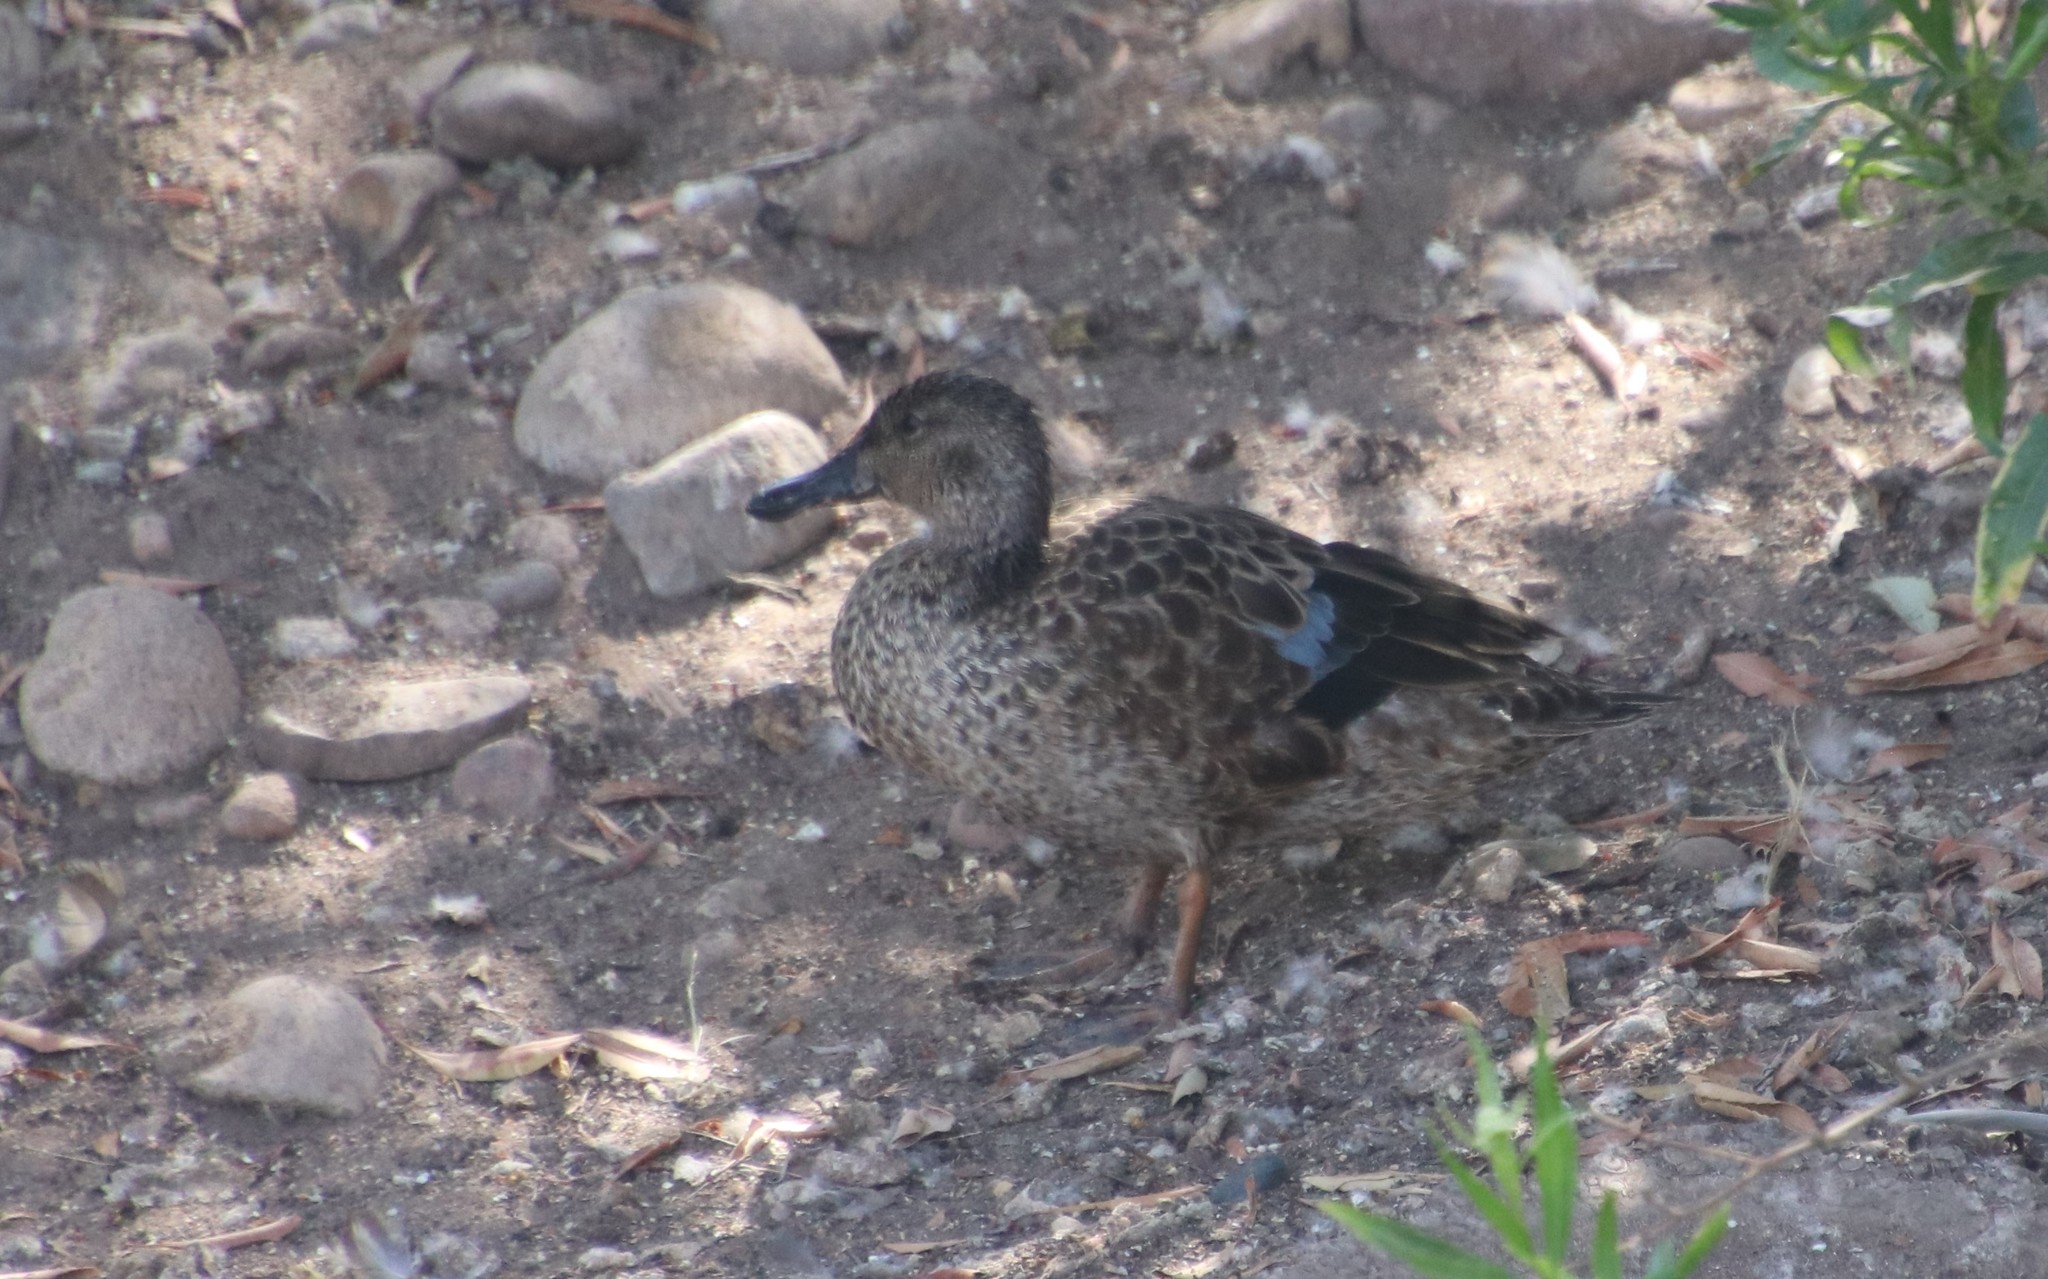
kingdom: Animalia
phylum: Chordata
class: Aves
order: Anseriformes
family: Anatidae
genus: Spatula
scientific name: Spatula cyanoptera
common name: Cinnamon teal
